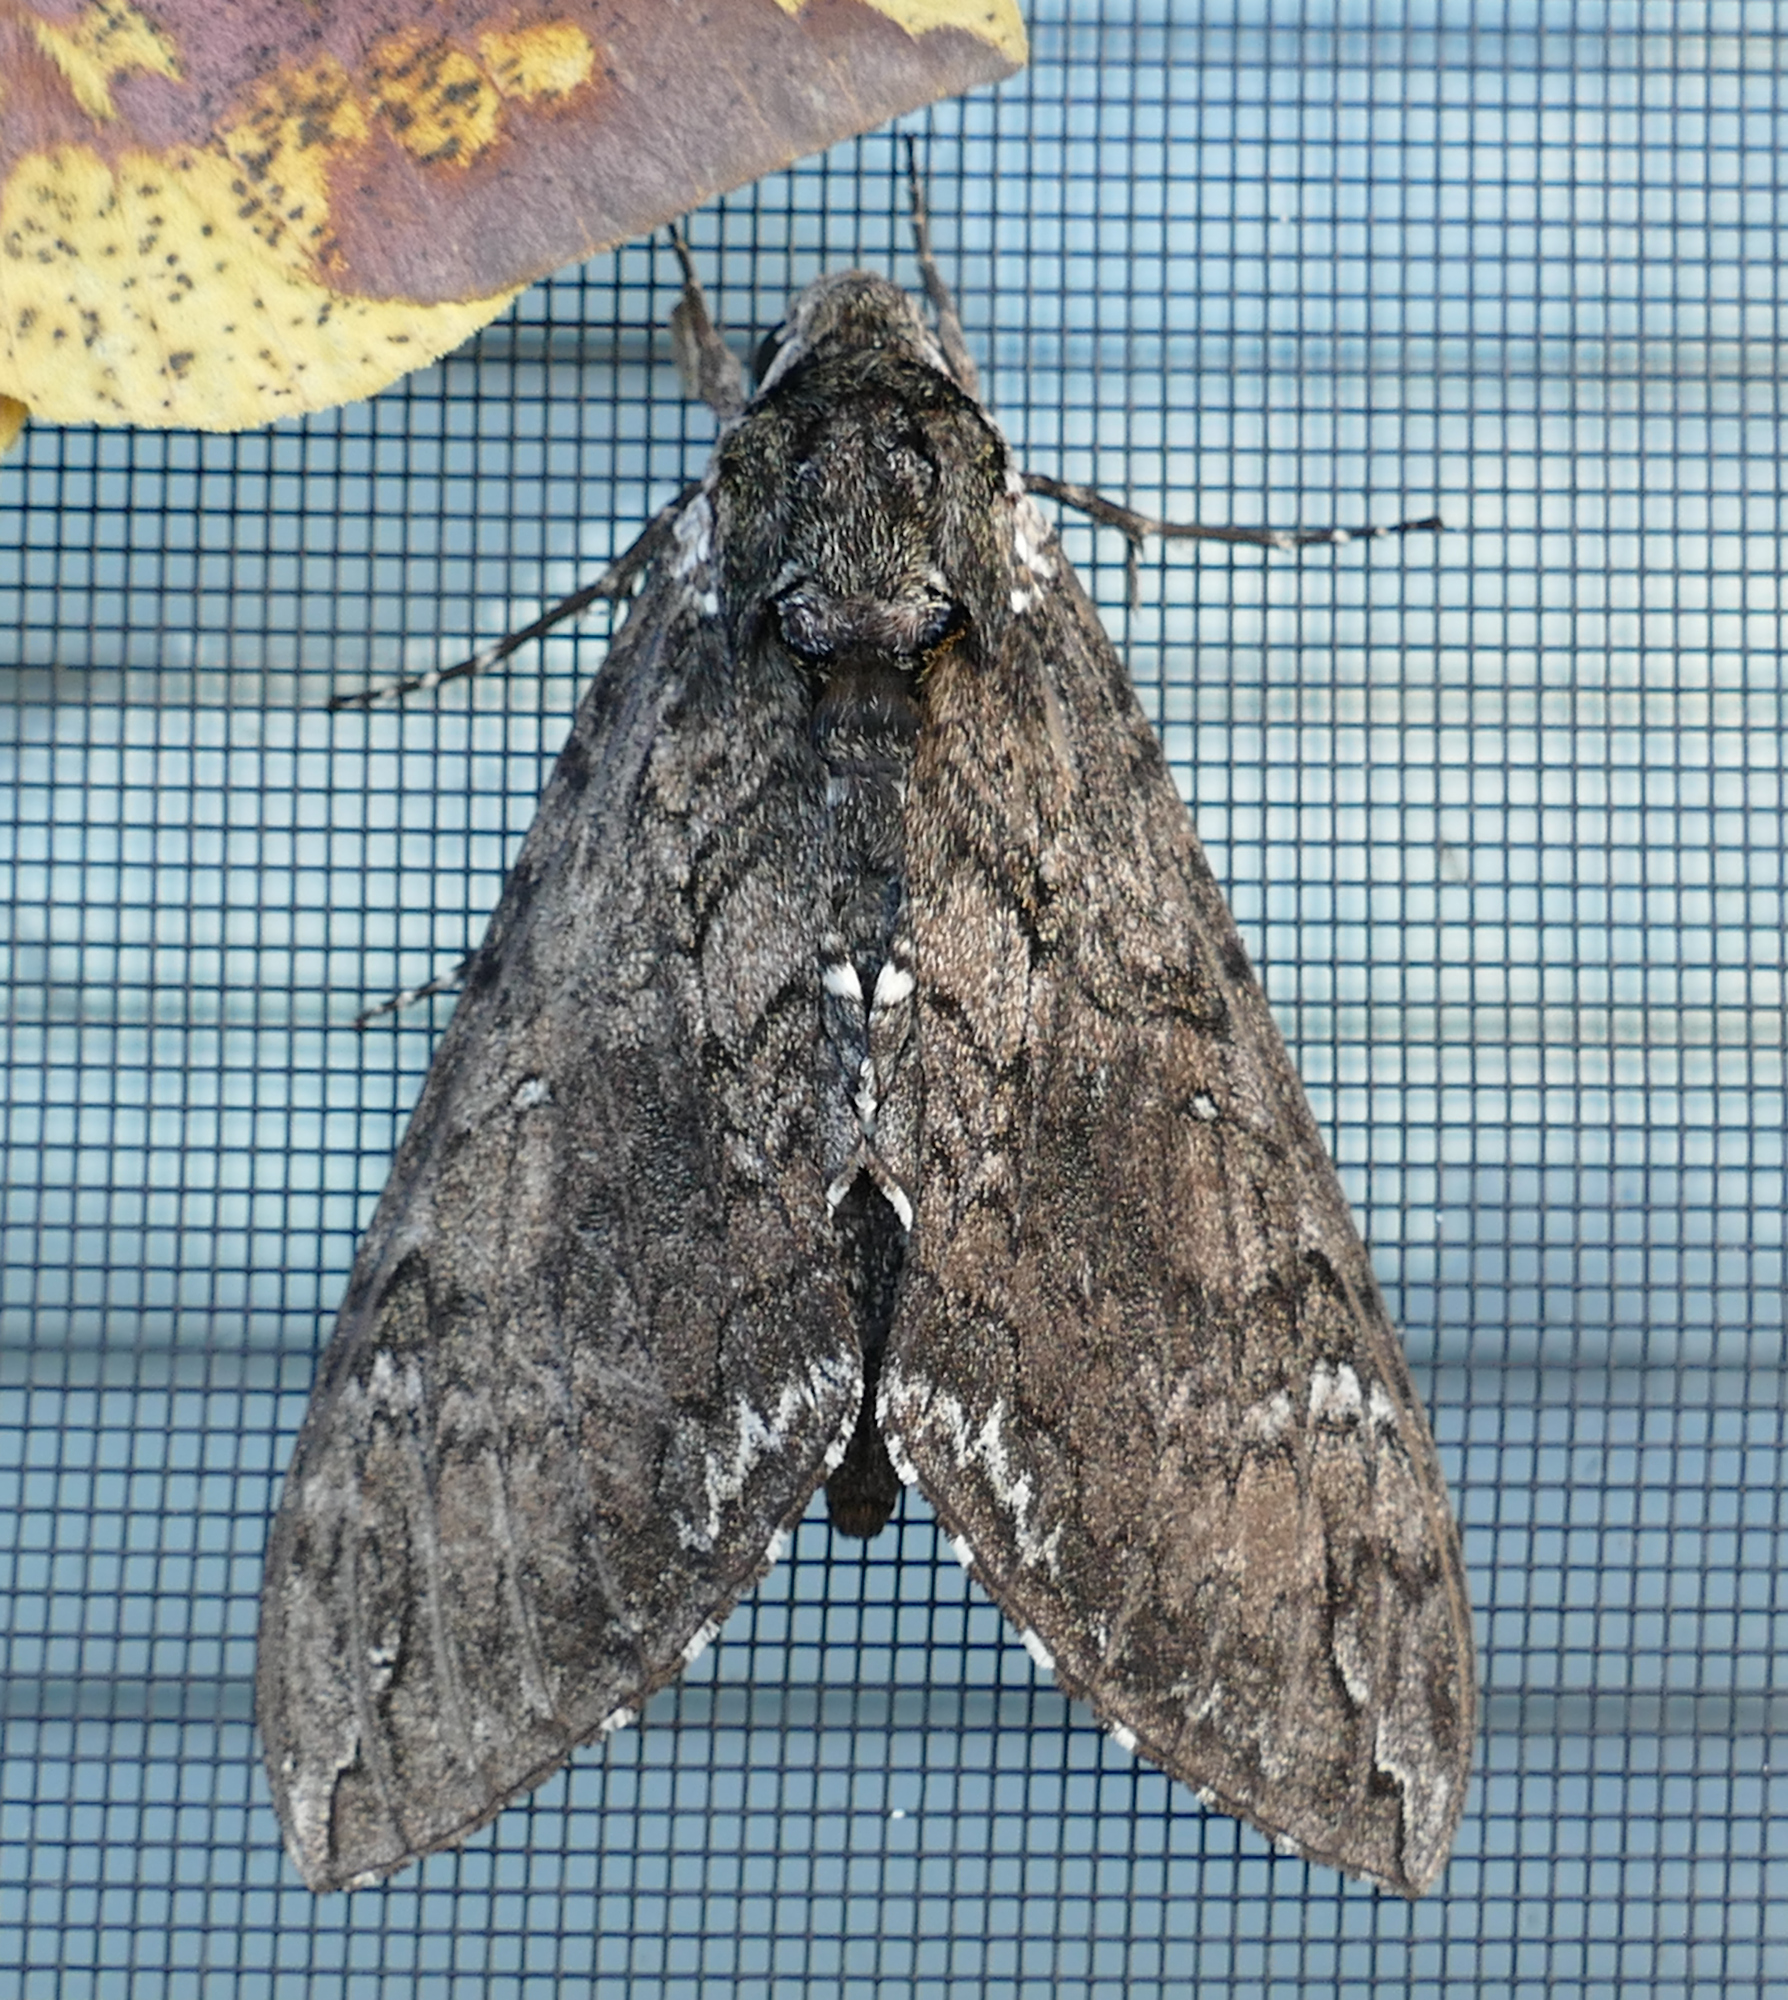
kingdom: Animalia
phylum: Arthropoda
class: Insecta
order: Lepidoptera
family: Sphingidae
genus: Manduca
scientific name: Manduca sexta
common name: Carolina sphinx
